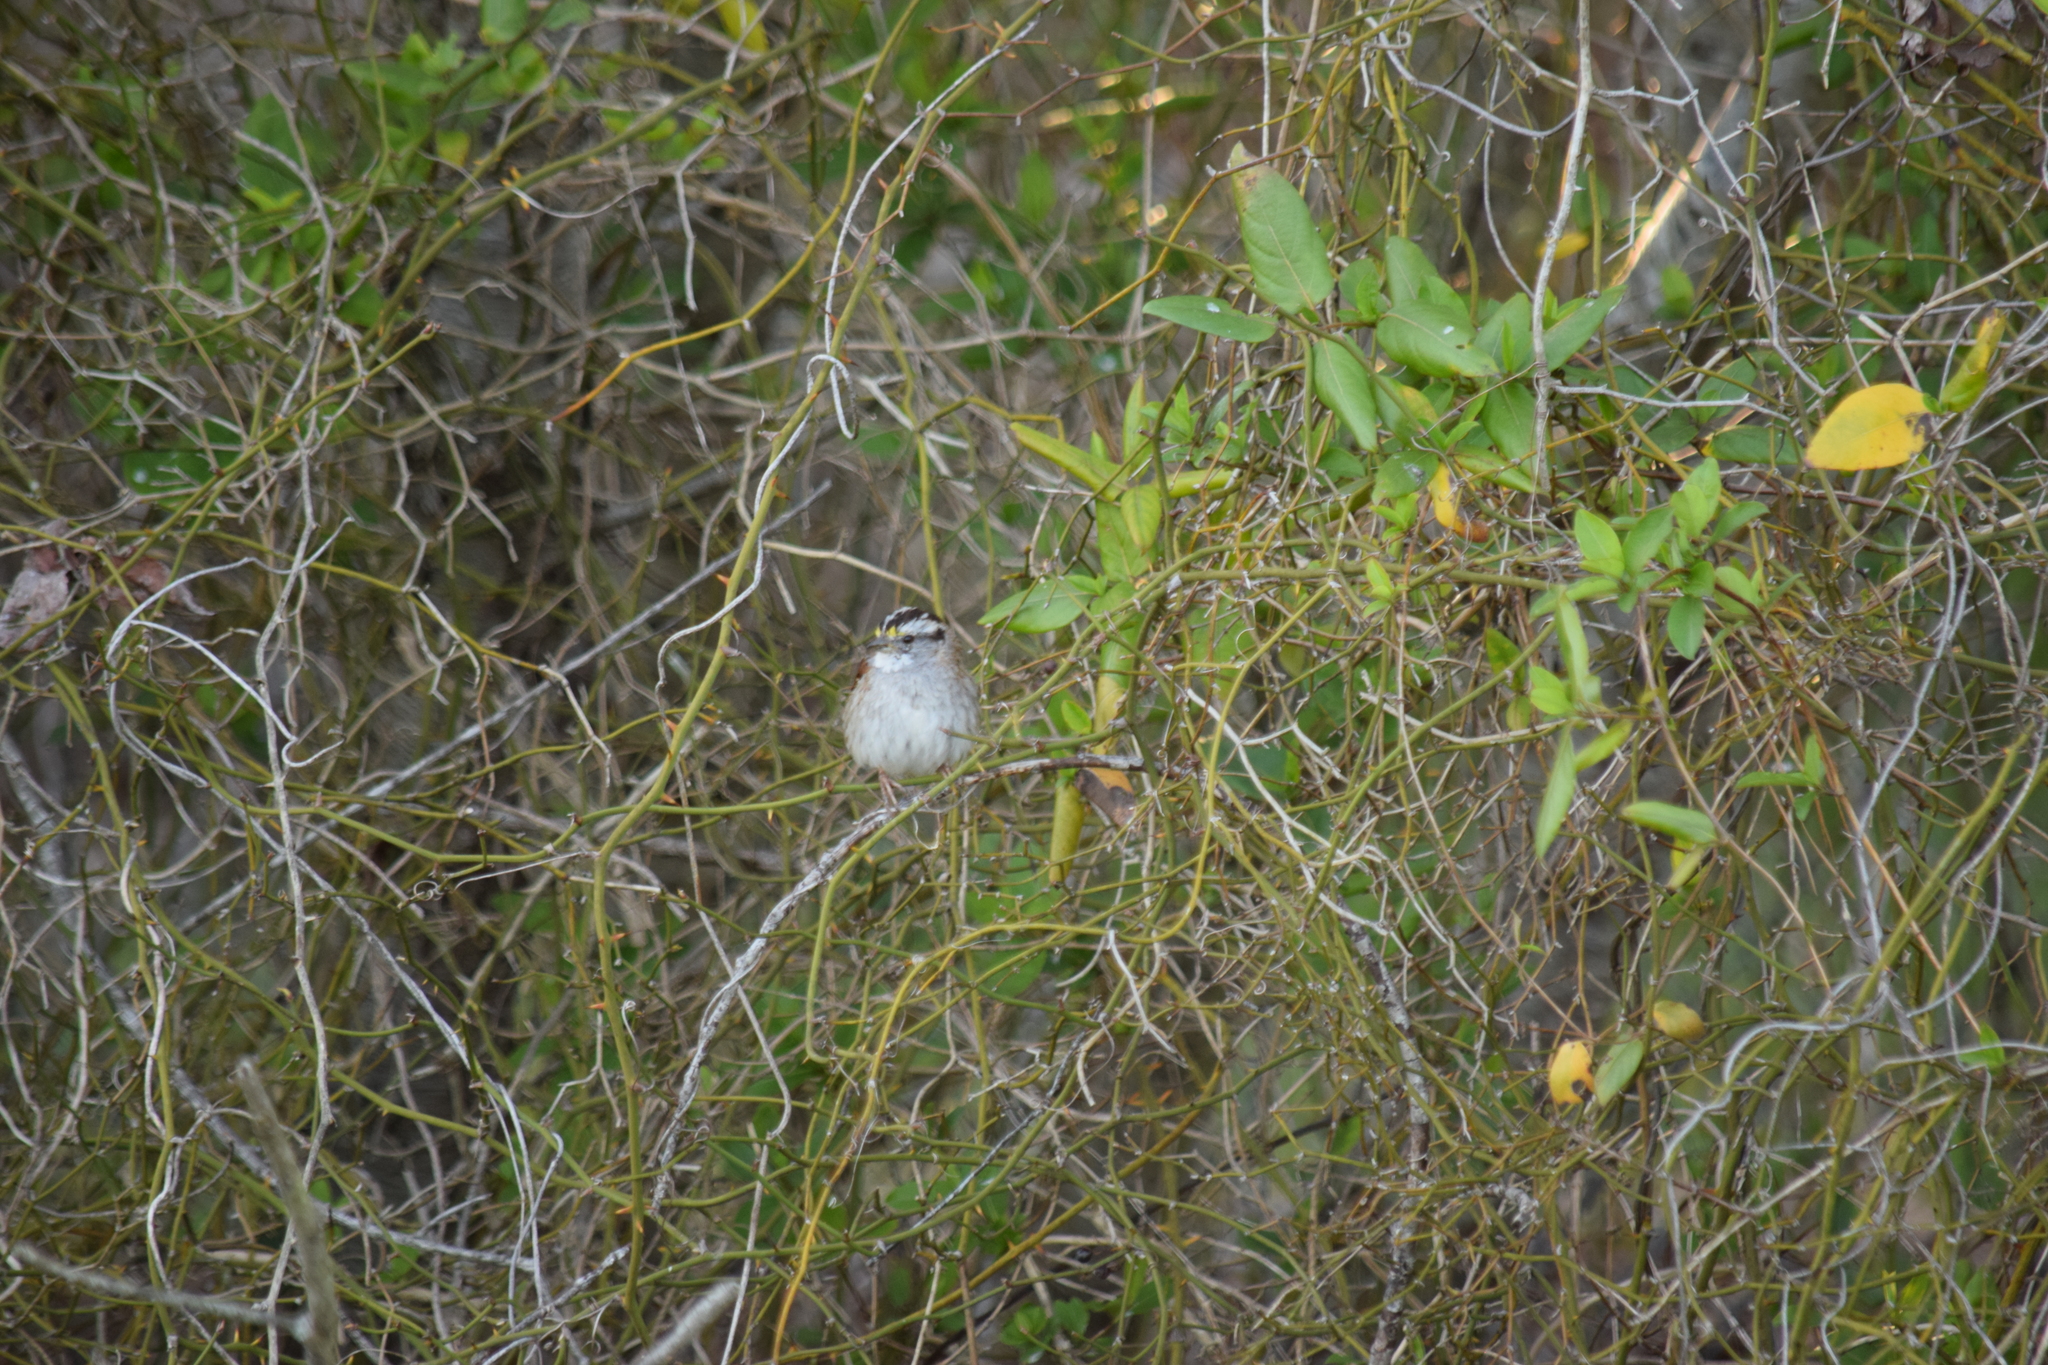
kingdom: Animalia
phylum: Chordata
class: Aves
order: Passeriformes
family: Passerellidae
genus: Zonotrichia
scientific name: Zonotrichia albicollis
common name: White-throated sparrow
